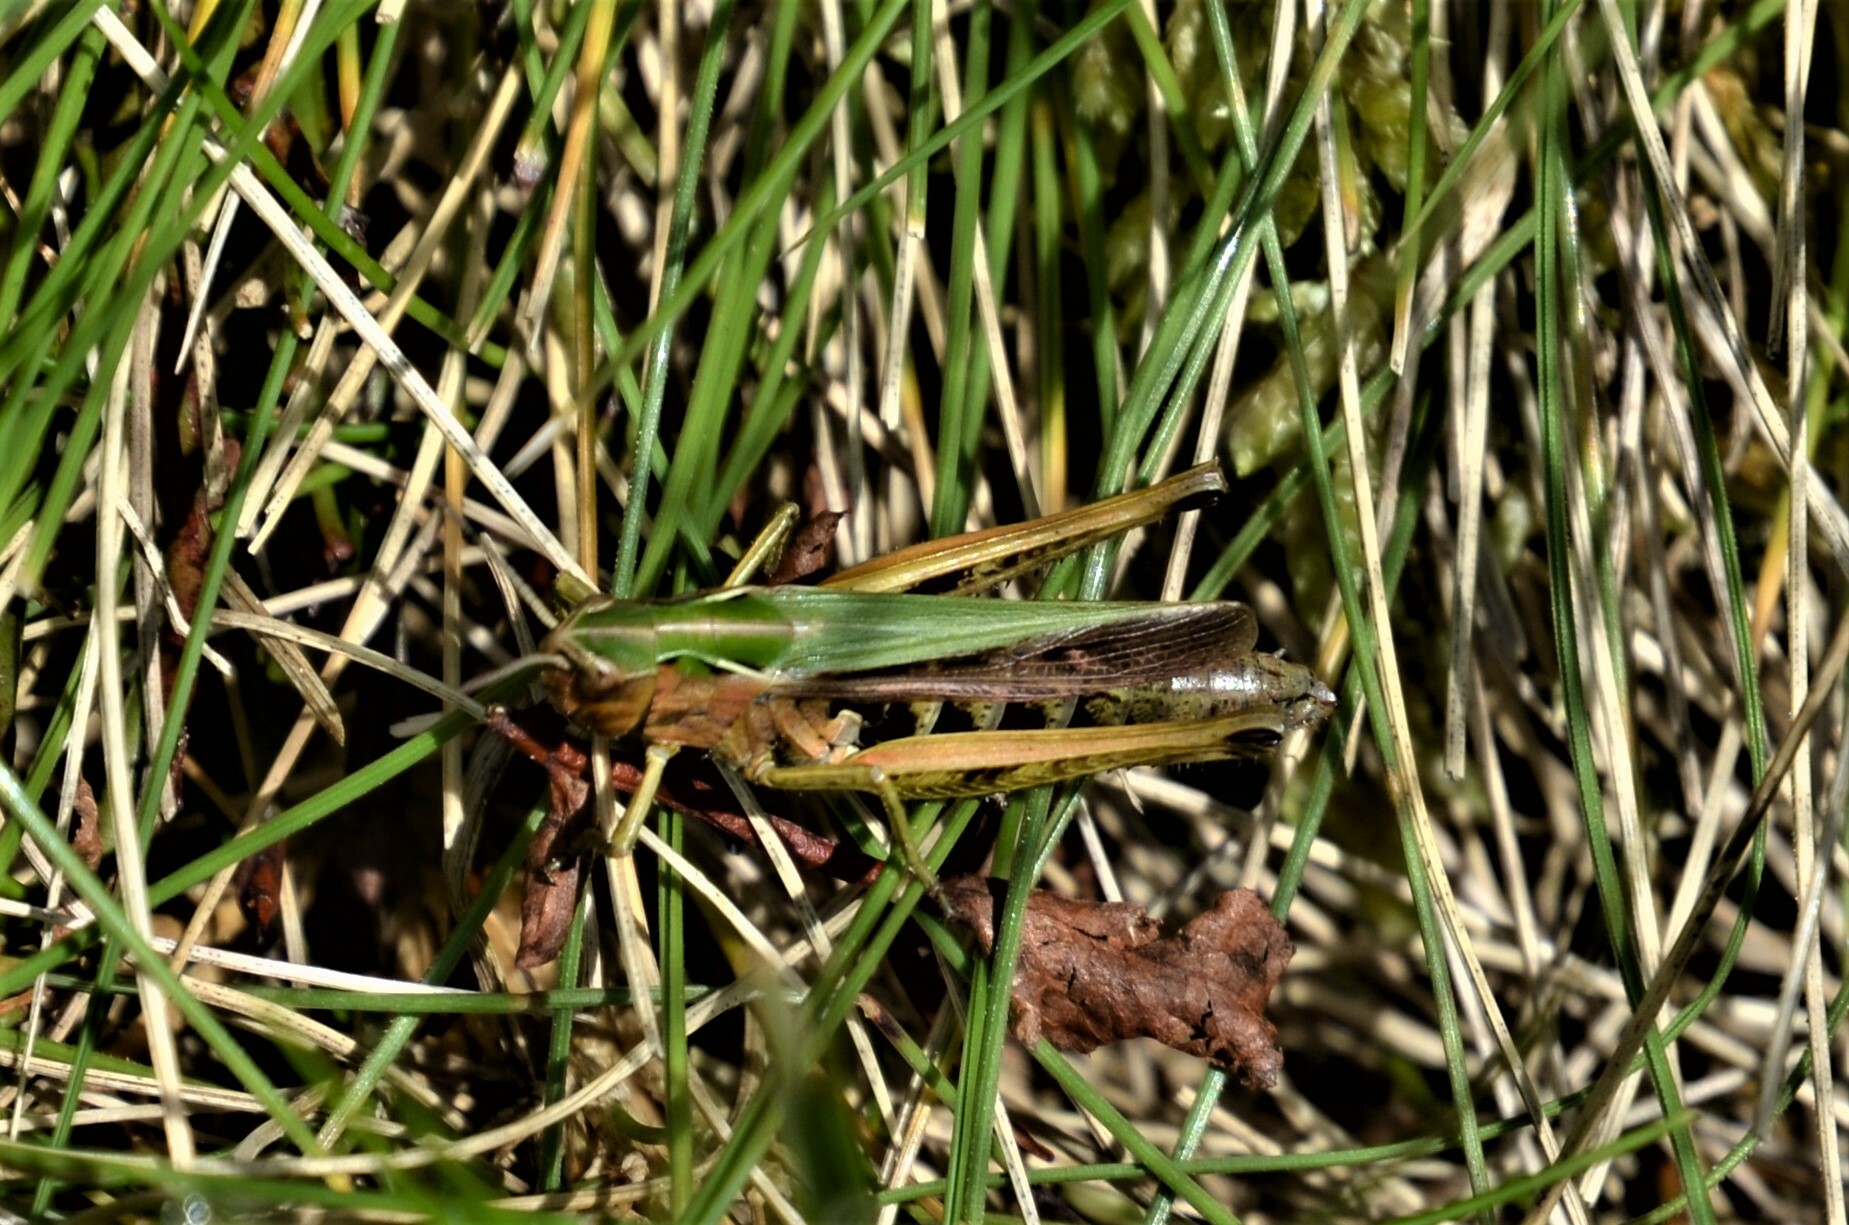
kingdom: Animalia
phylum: Arthropoda
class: Insecta
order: Orthoptera
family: Acrididae
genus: Omocestus
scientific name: Omocestus viridulus
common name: Common green grasshopper
